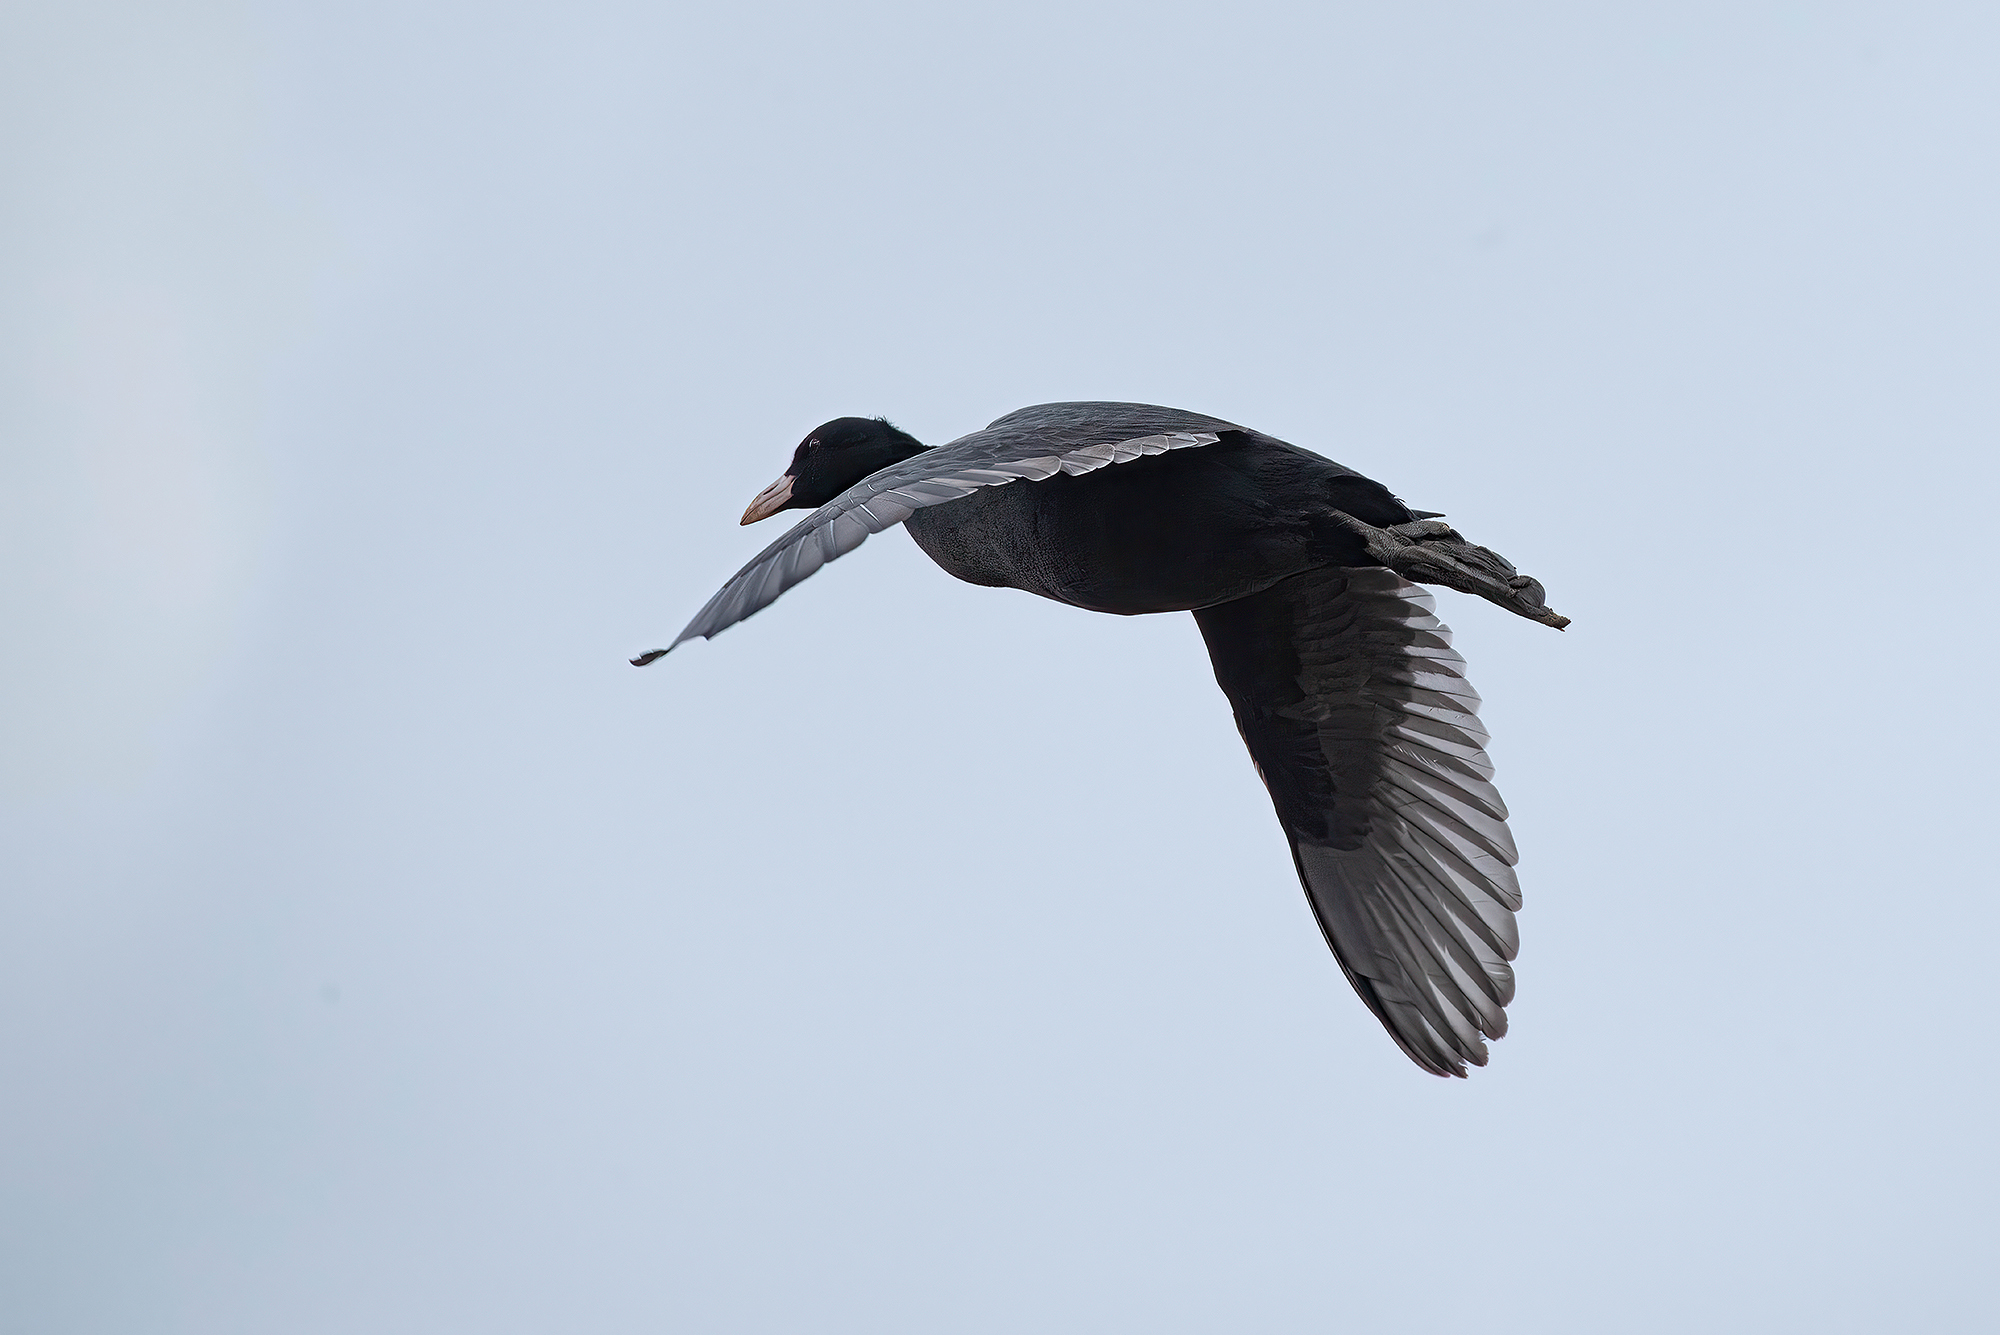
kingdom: Animalia
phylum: Chordata
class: Aves
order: Gruiformes
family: Rallidae
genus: Fulica
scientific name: Fulica atra
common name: Eurasian coot
